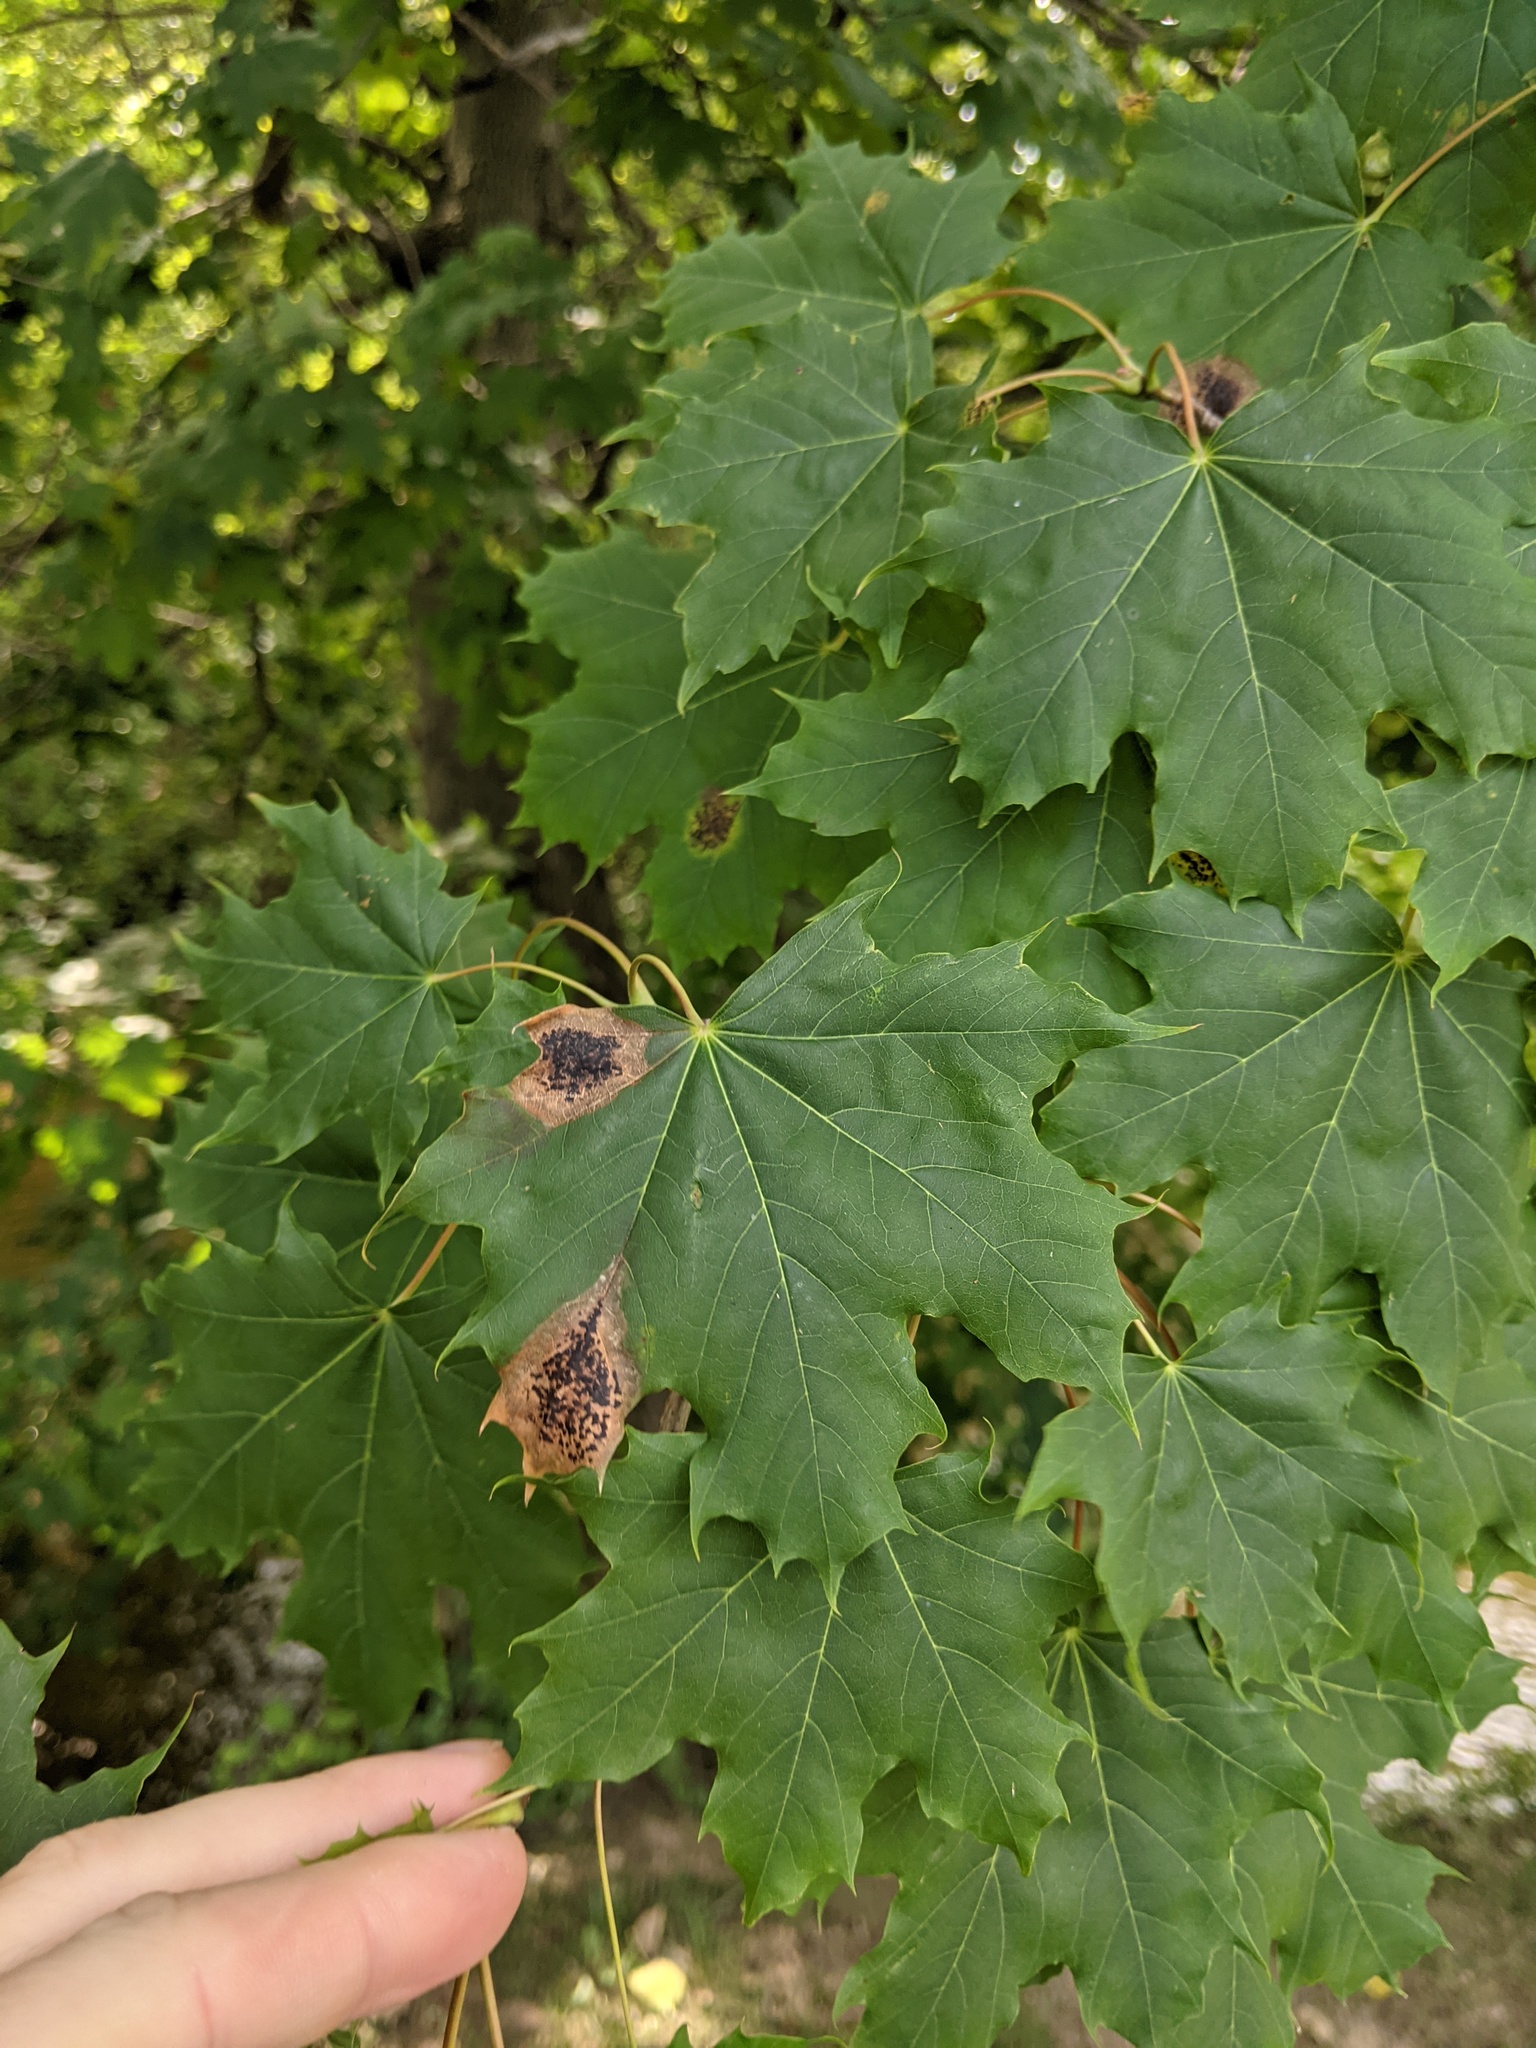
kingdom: Plantae
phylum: Tracheophyta
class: Magnoliopsida
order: Sapindales
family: Sapindaceae
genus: Acer
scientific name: Acer platanoides
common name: Norway maple
